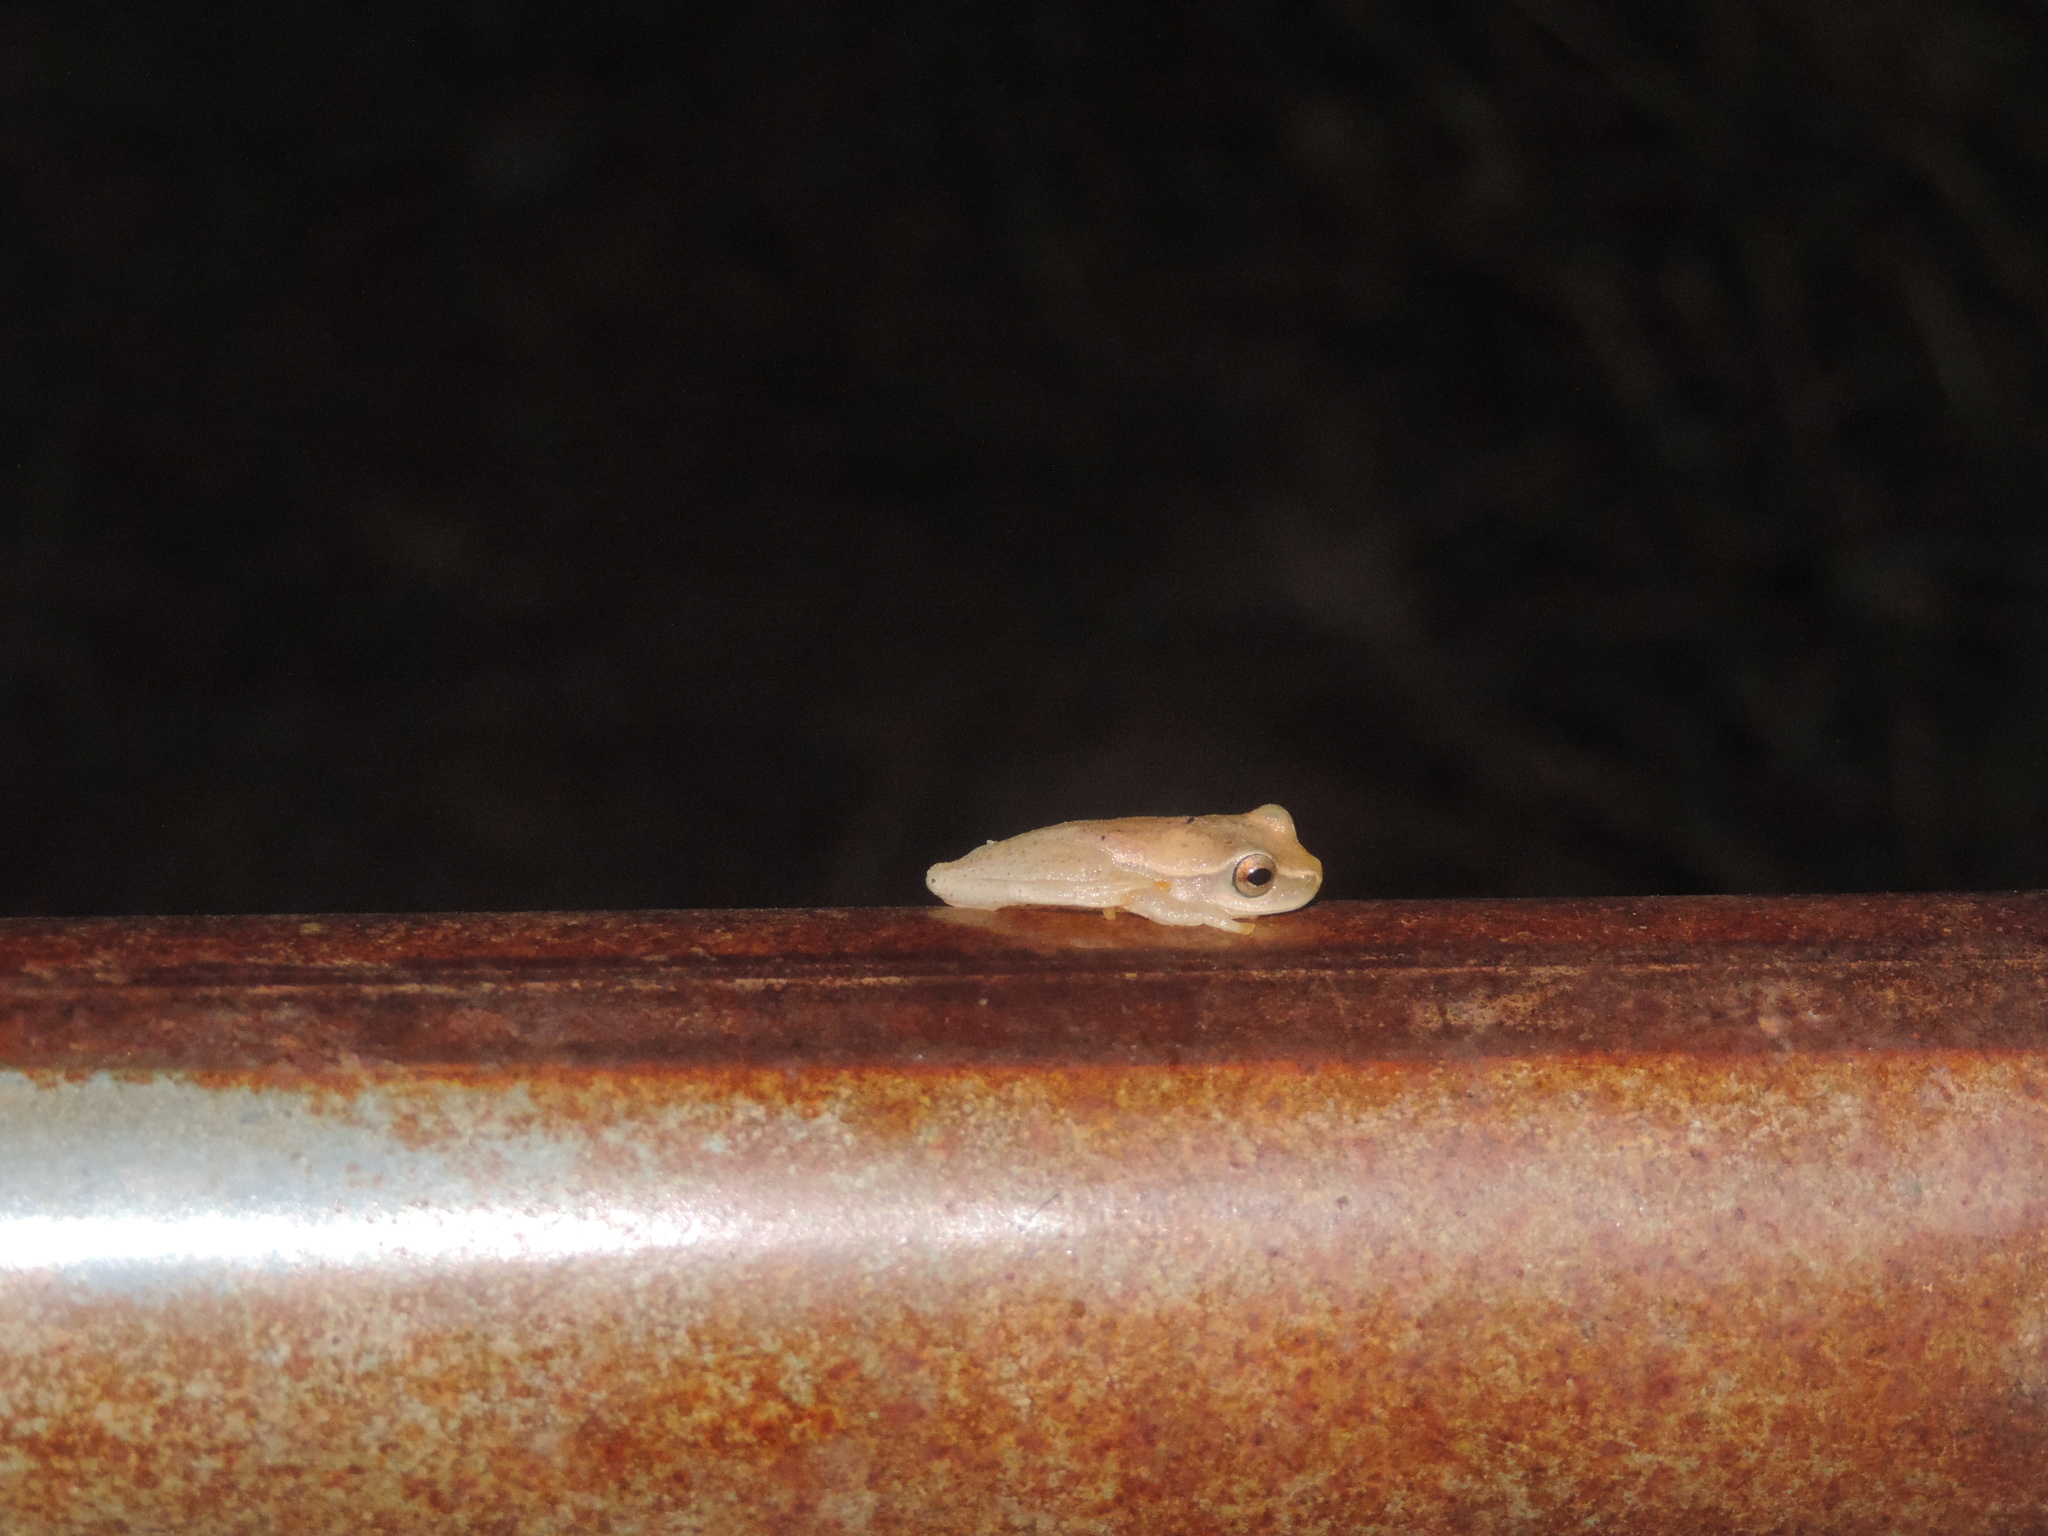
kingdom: Animalia
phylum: Chordata
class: Amphibia
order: Anura
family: Hylidae
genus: Dendropsophus
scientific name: Dendropsophus microcephalus
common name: Small-headed treefrog
